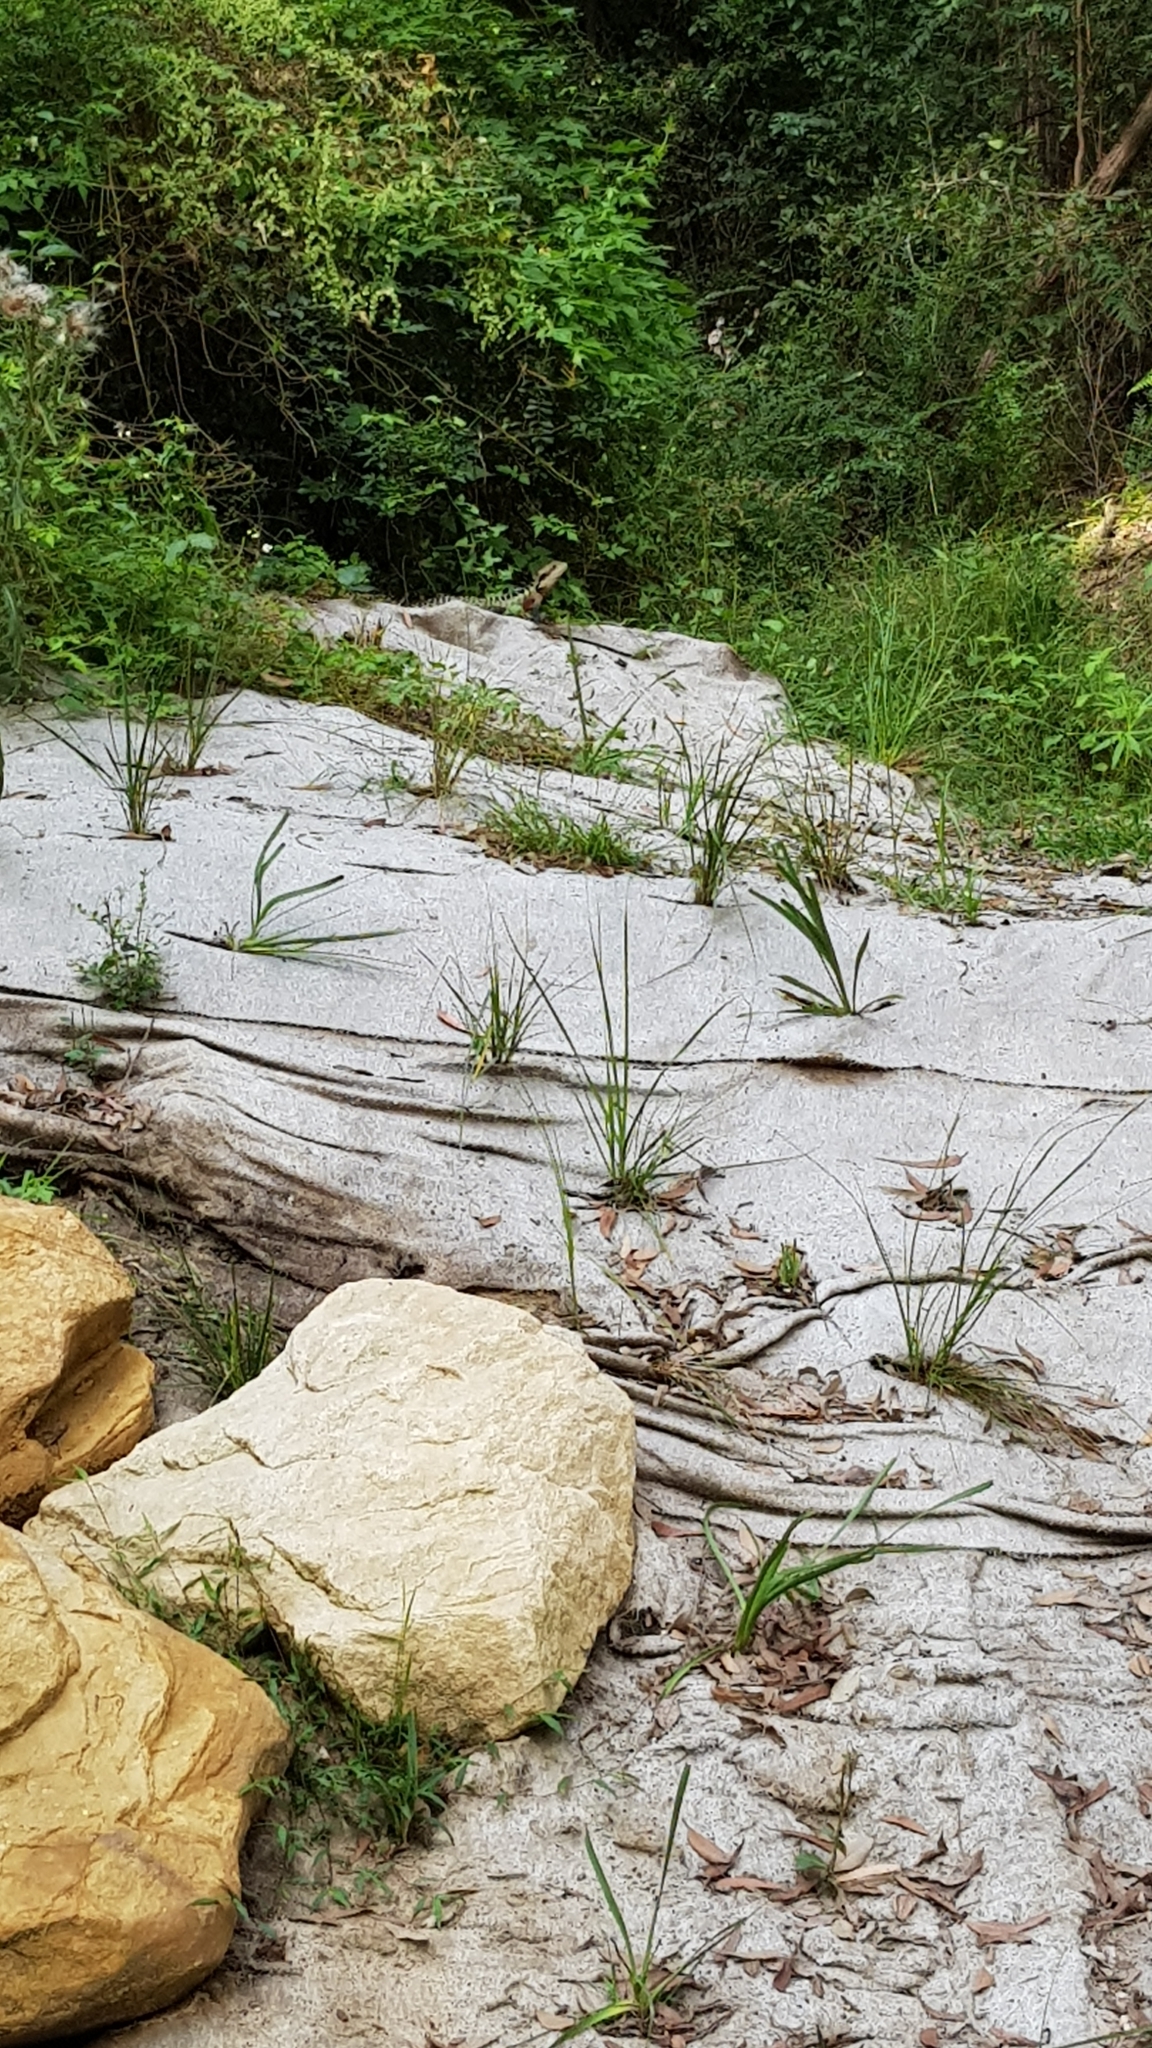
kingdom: Animalia
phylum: Chordata
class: Squamata
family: Agamidae
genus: Intellagama
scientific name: Intellagama lesueurii
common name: Eastern water dragon
